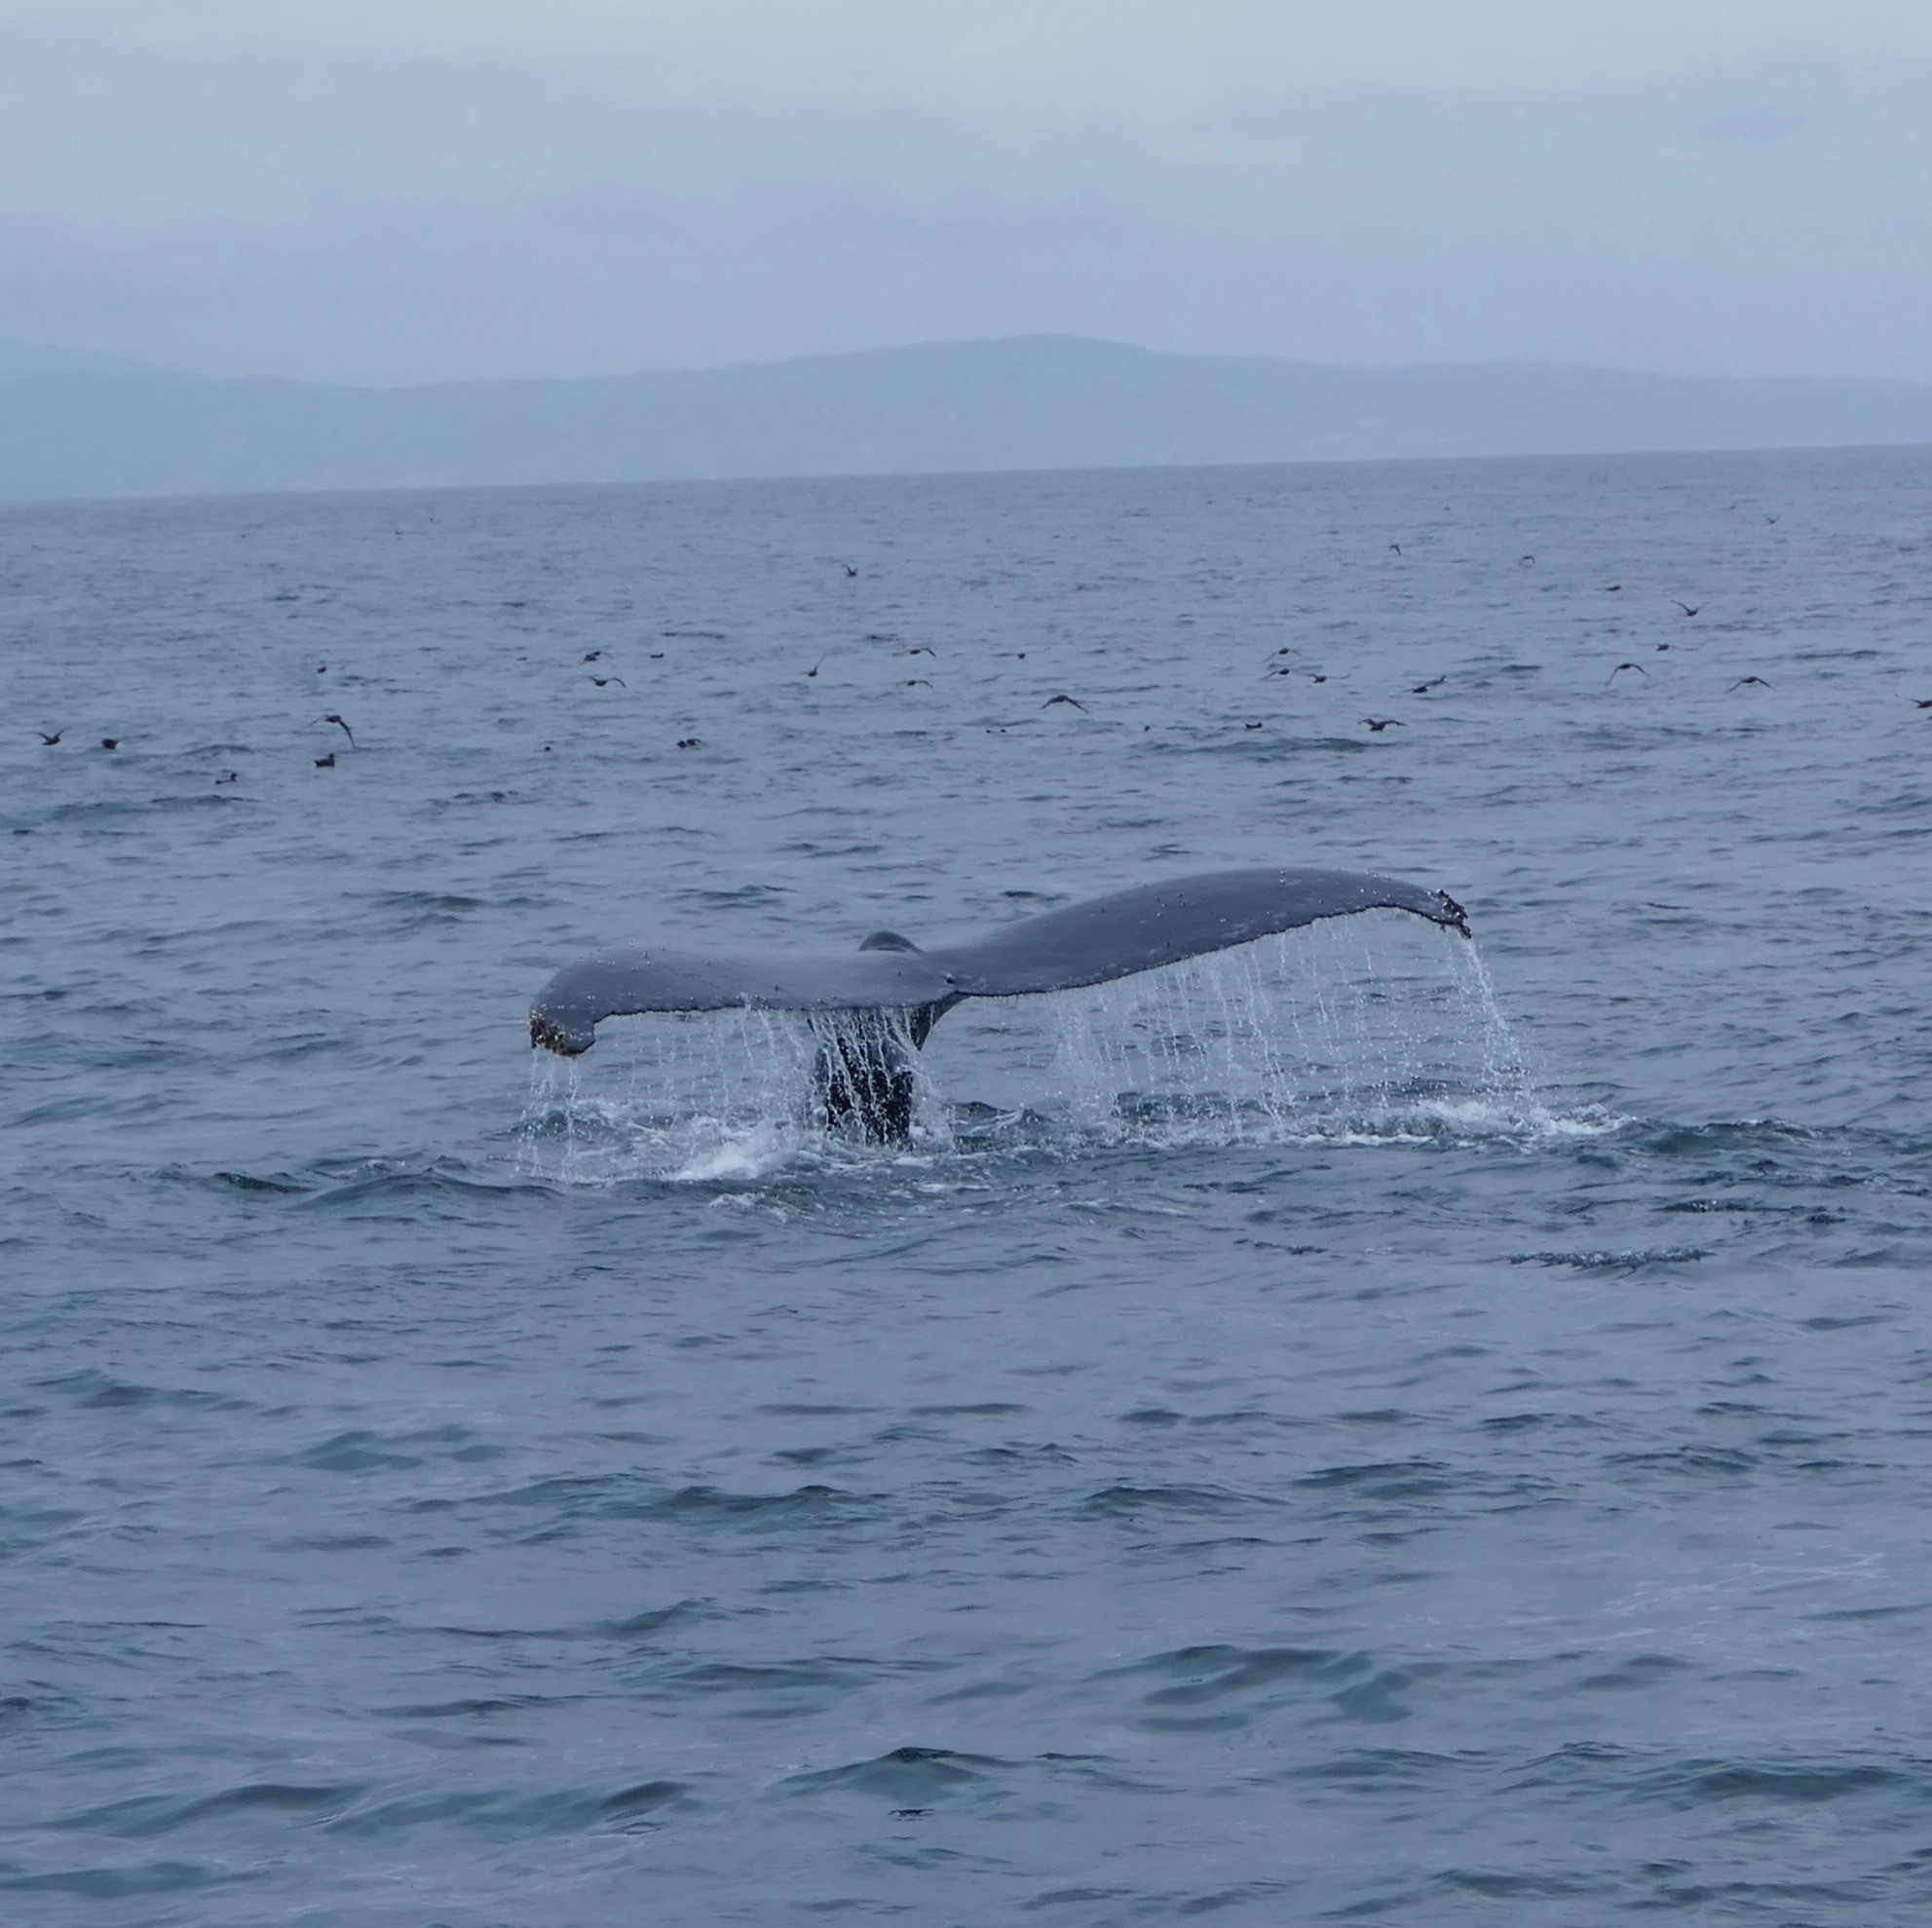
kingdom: Animalia
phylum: Chordata
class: Mammalia
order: Cetacea
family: Balaenopteridae
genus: Megaptera
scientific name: Megaptera novaeangliae
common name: Humpback whale
